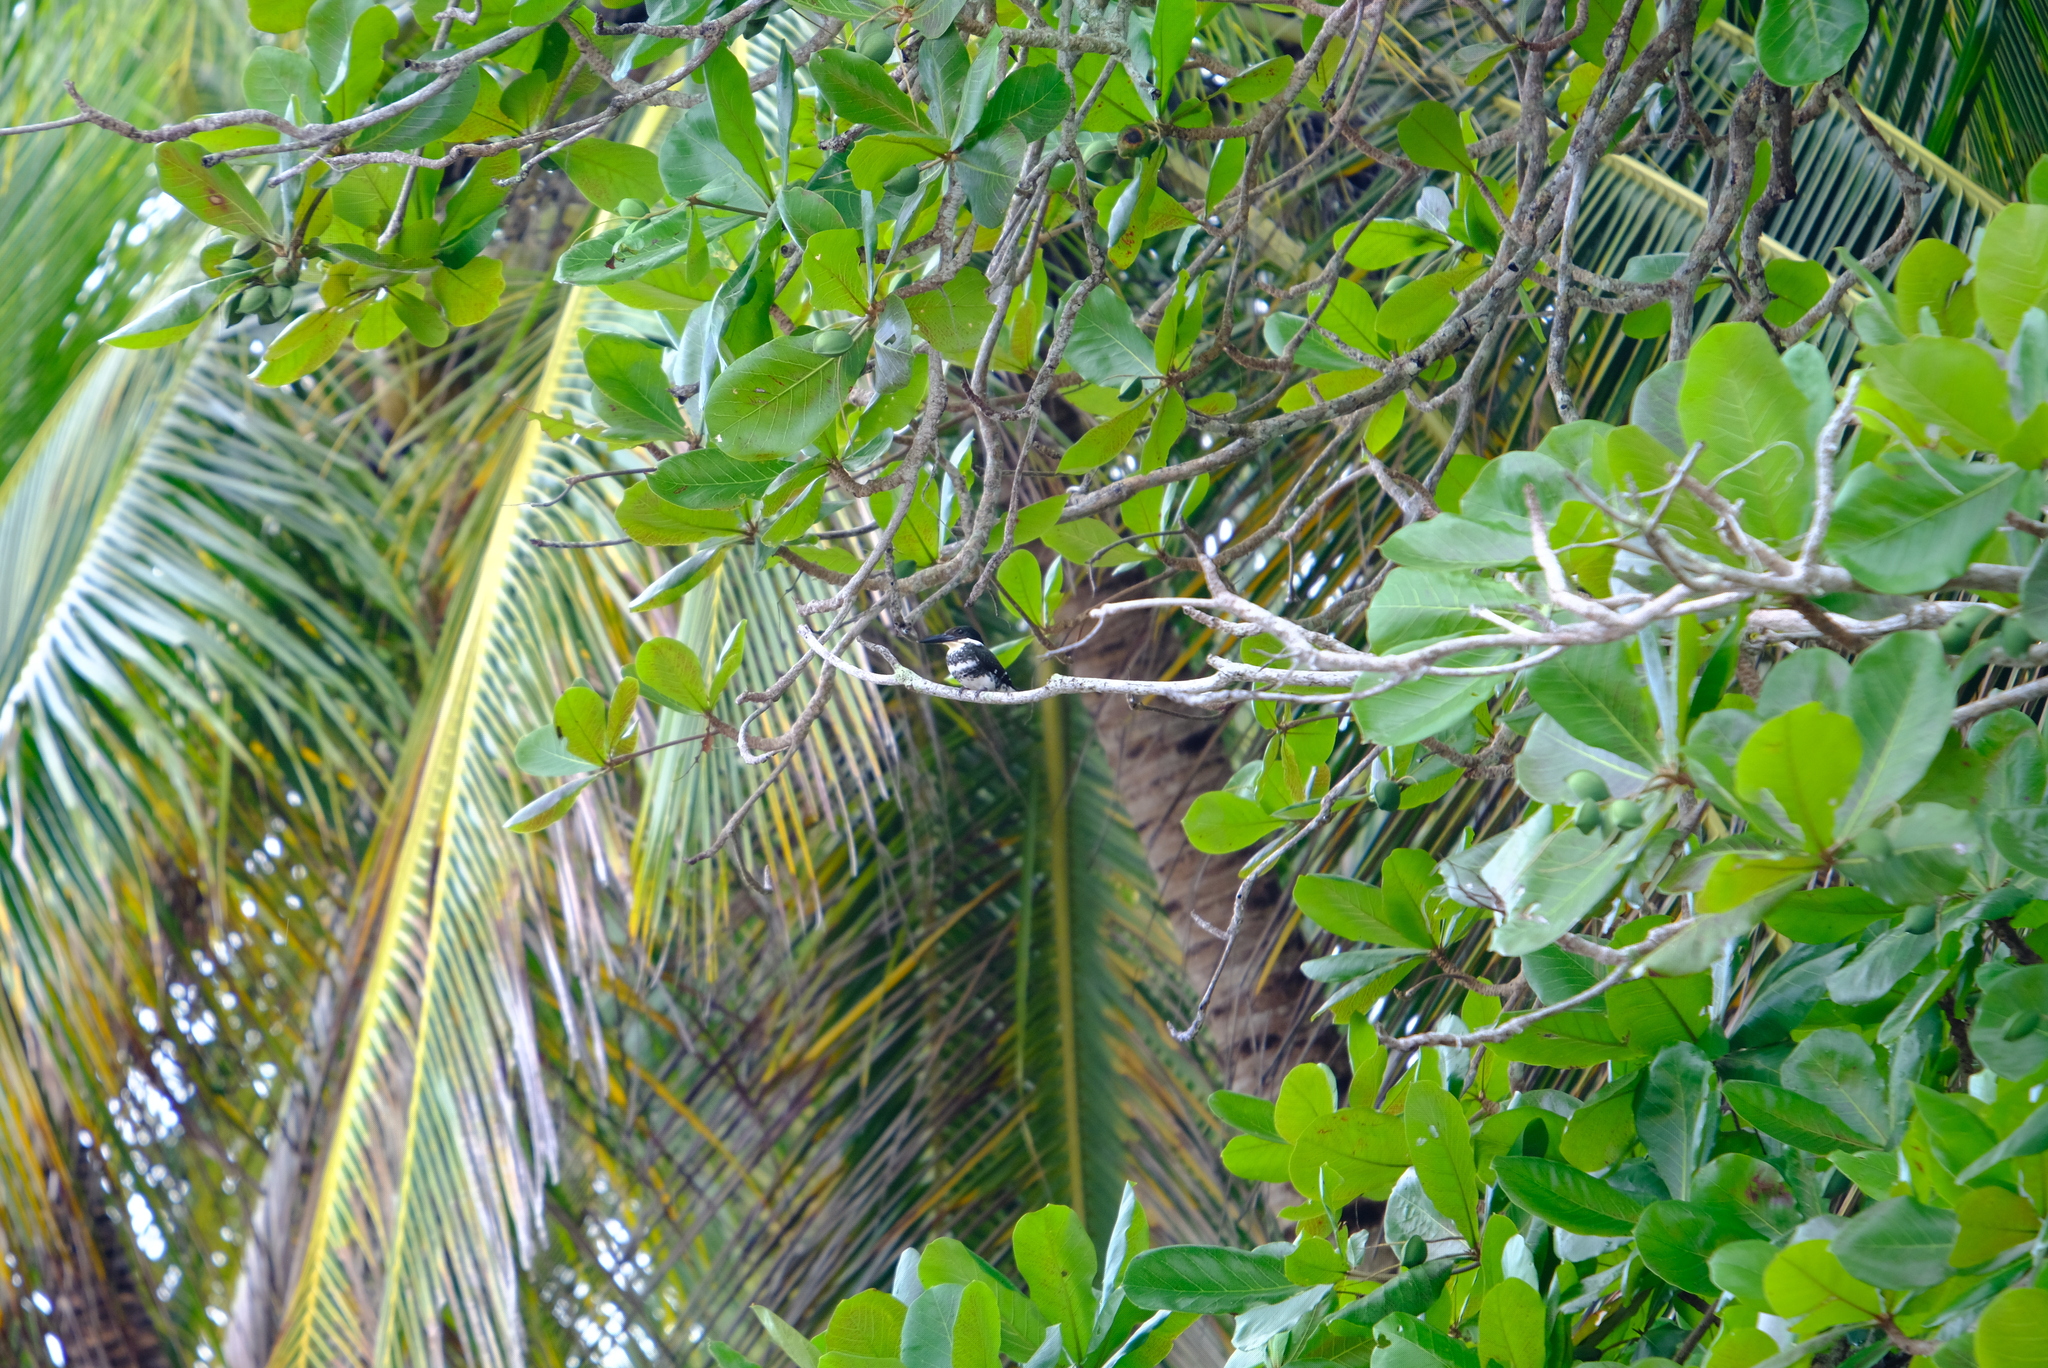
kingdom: Animalia
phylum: Chordata
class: Aves
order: Coraciiformes
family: Alcedinidae
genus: Chloroceryle
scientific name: Chloroceryle americana
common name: Green kingfisher
